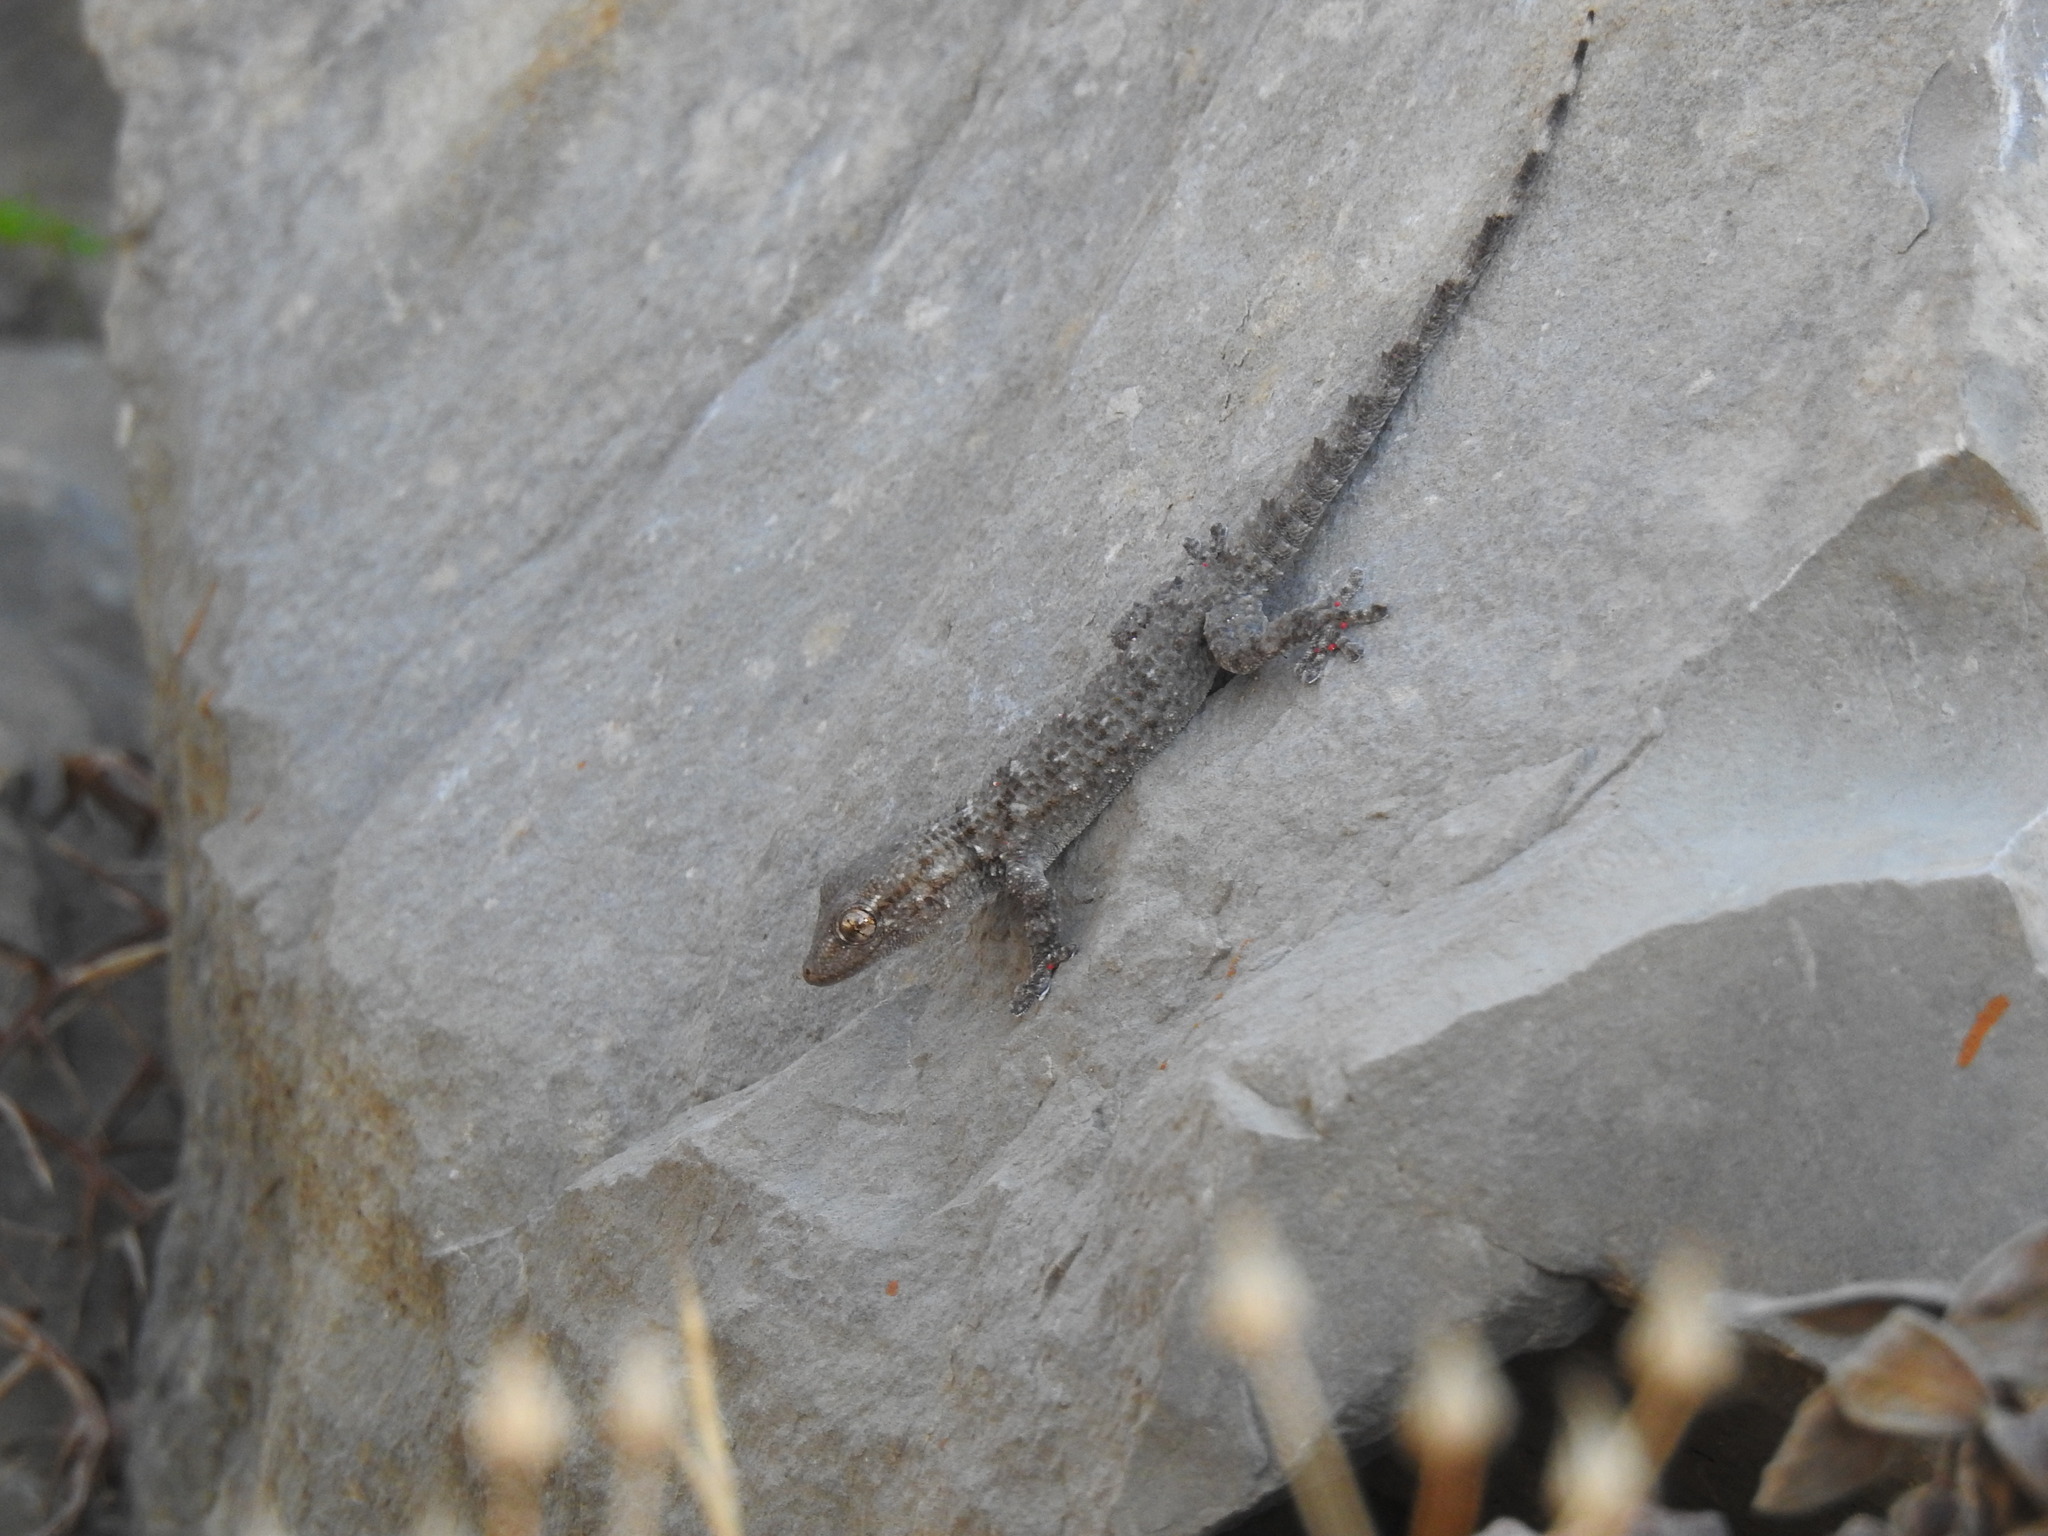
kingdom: Animalia
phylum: Chordata
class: Squamata
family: Phyllodactylidae
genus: Tarentola
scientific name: Tarentola mauritanica
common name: Moorish gecko
